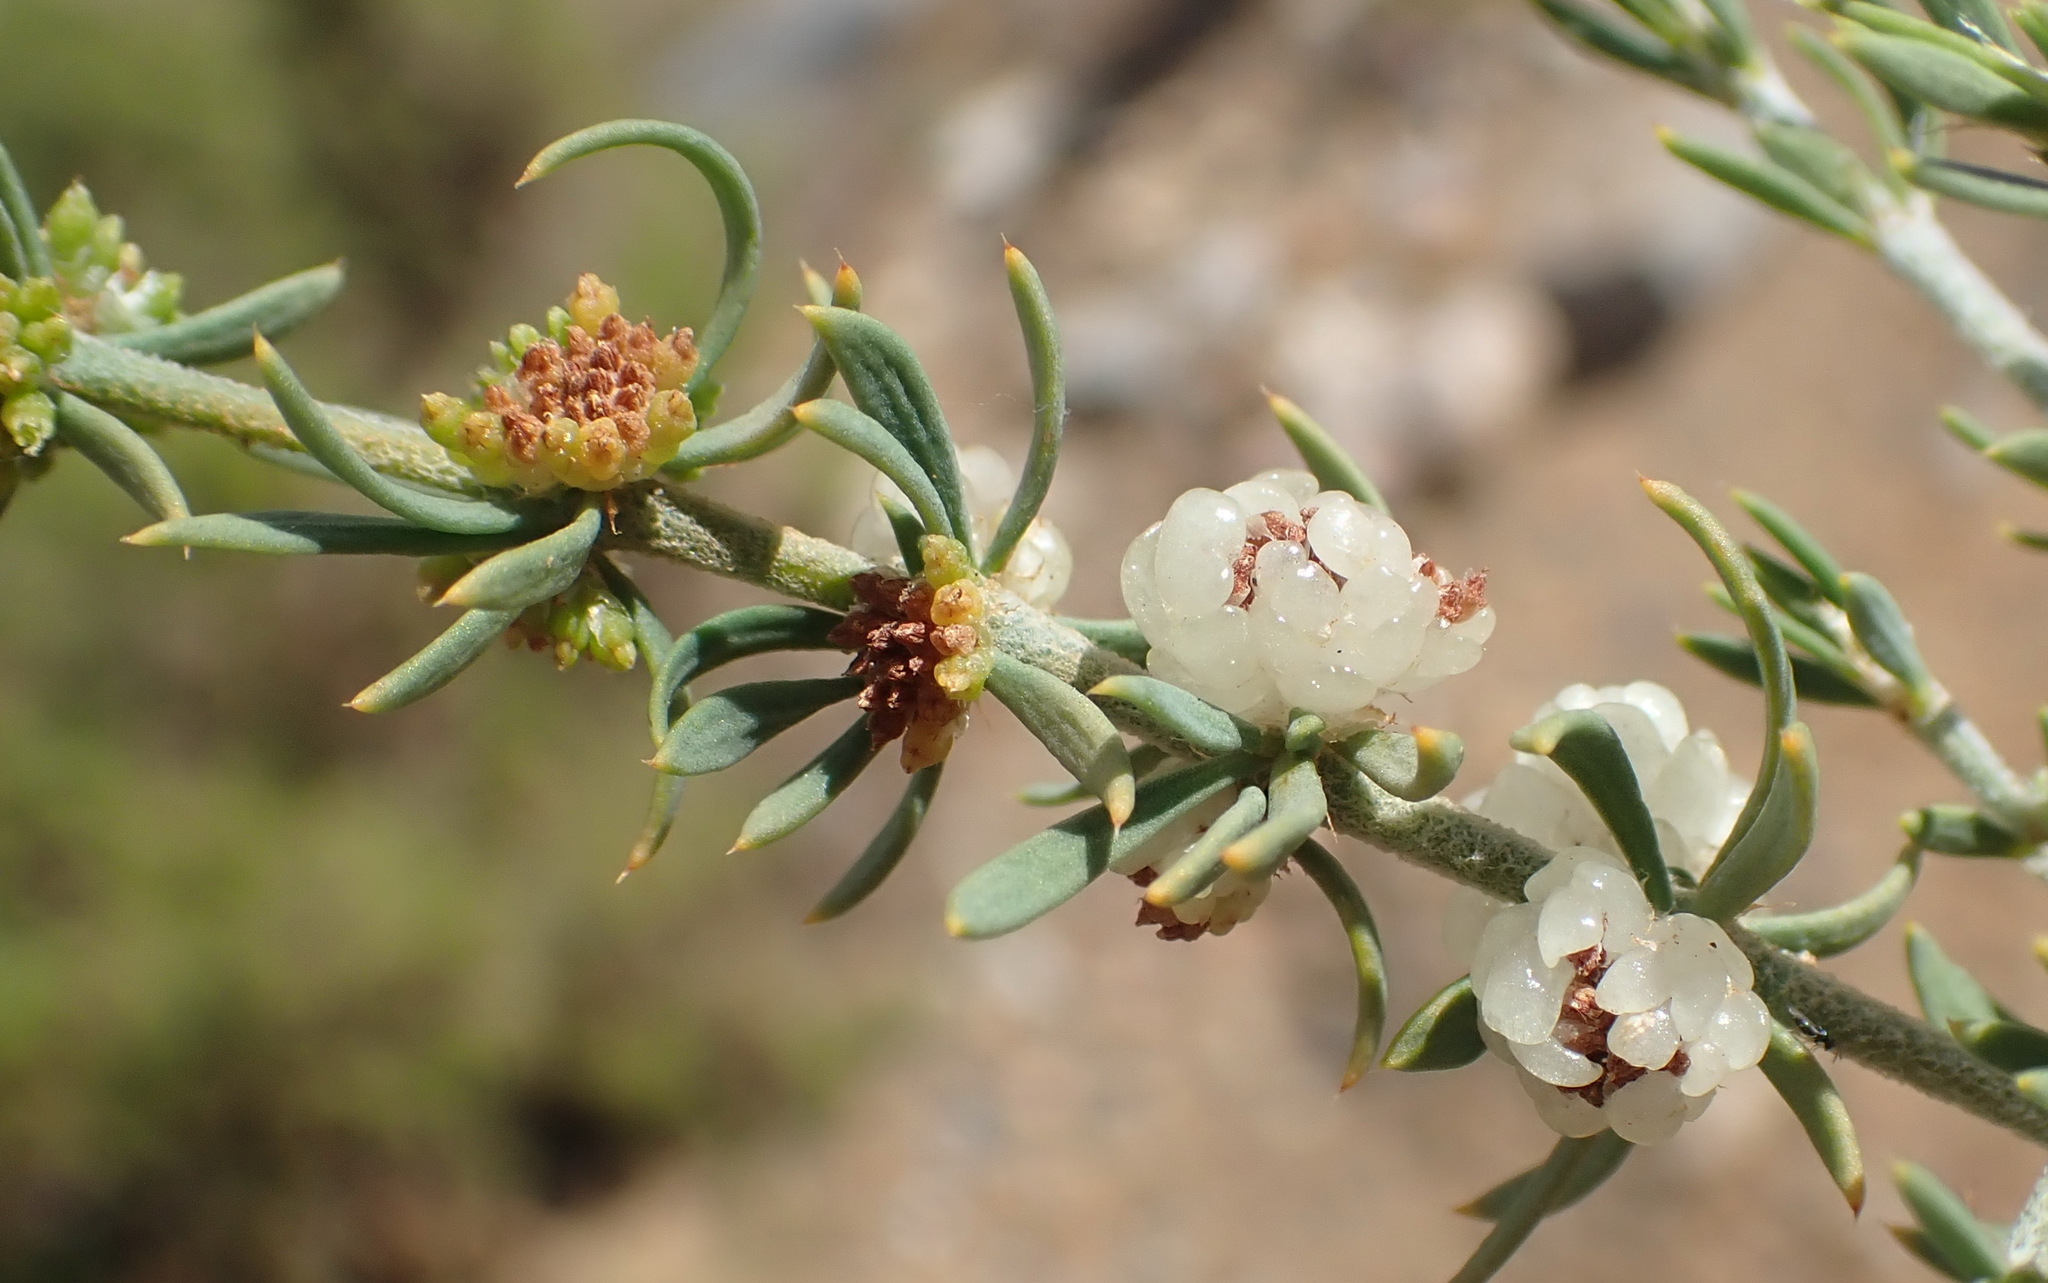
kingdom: Plantae
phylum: Tracheophyta
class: Magnoliopsida
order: Caryophyllales
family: Caryophyllaceae
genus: Pollichia
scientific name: Pollichia campestris
